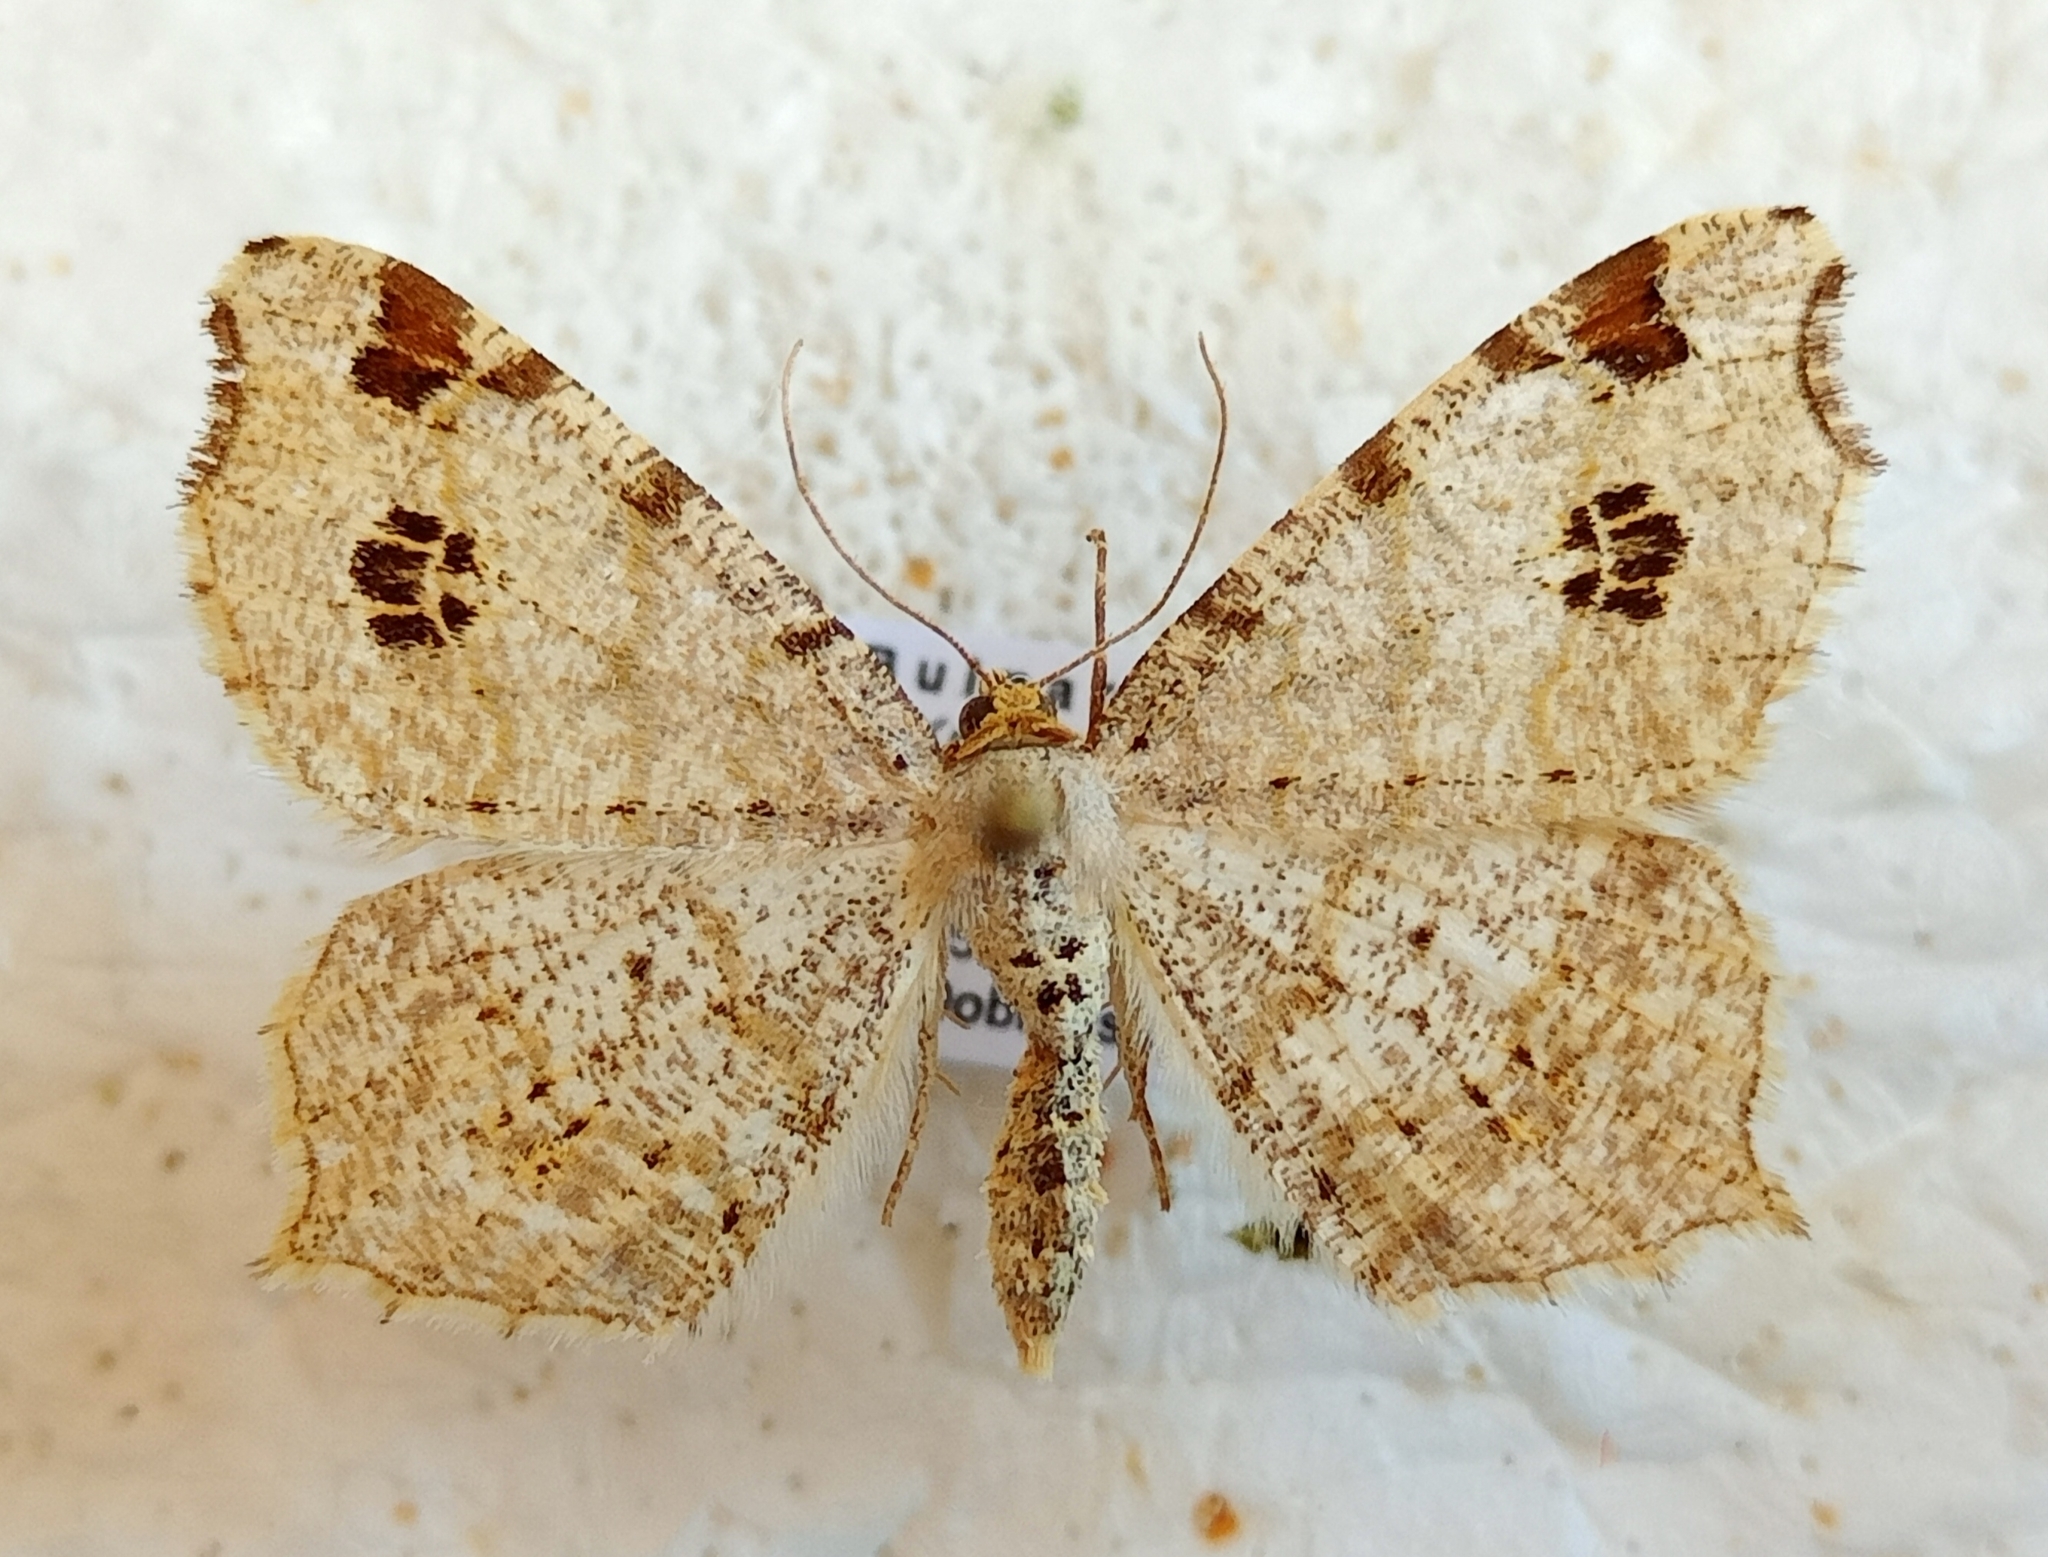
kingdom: Animalia
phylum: Arthropoda
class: Insecta
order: Lepidoptera
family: Geometridae
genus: Macaria
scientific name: Macaria notata
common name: Peacock moth
